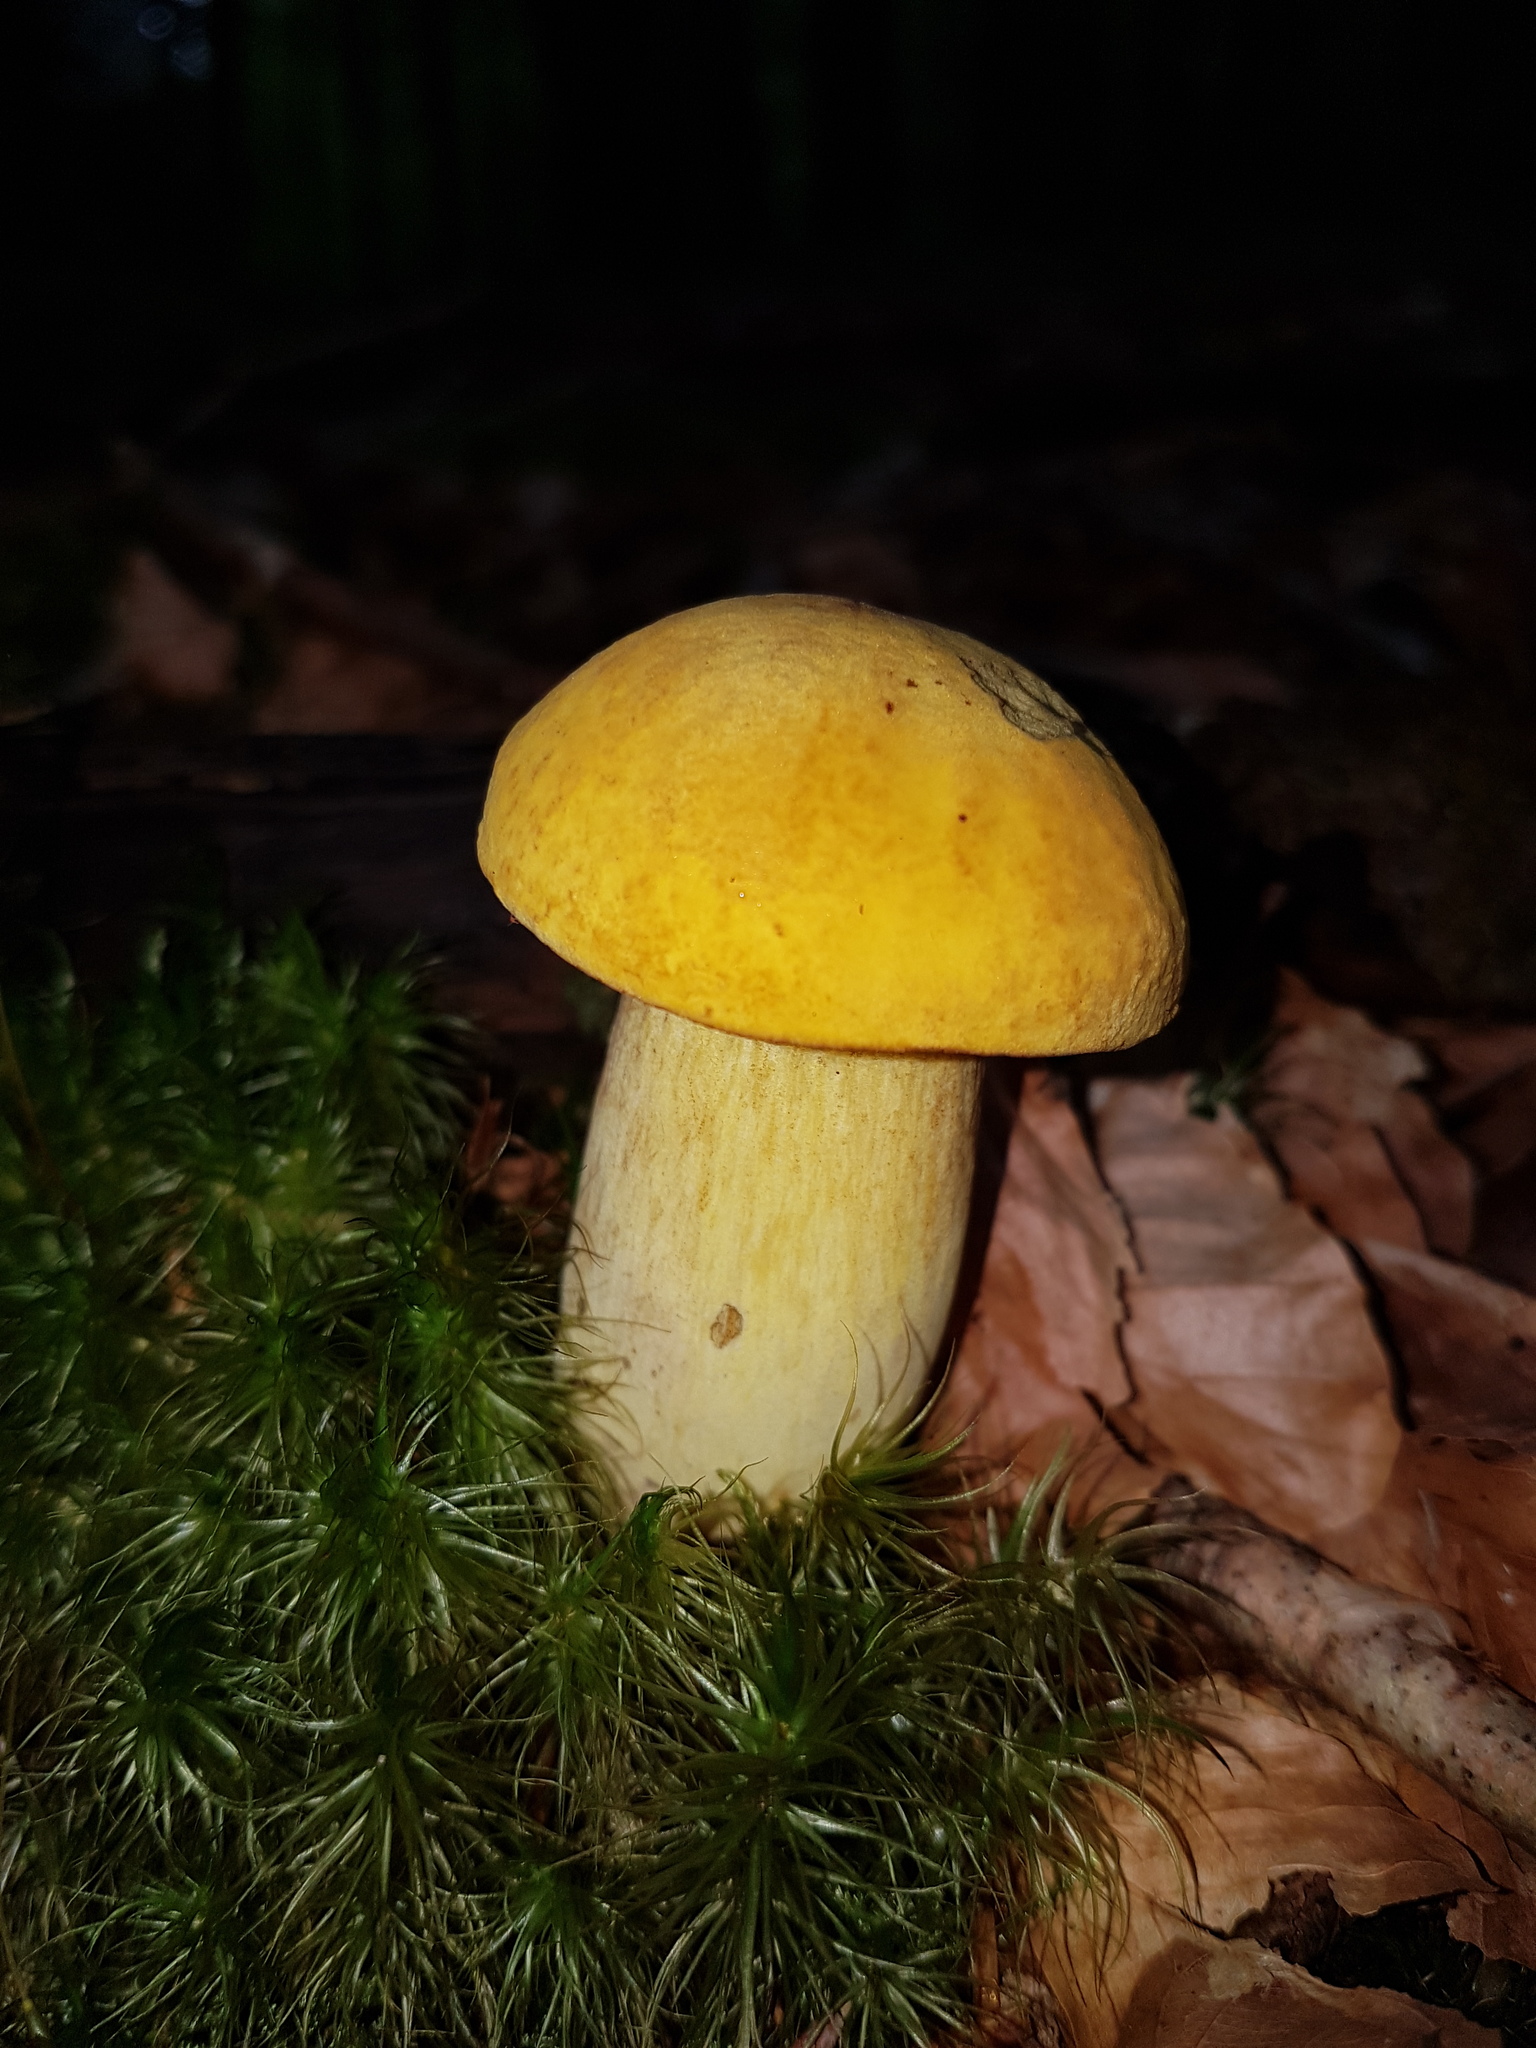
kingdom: Fungi
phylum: Basidiomycota
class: Agaricomycetes
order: Boletales
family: Boletaceae
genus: Neoboletus
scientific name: Neoboletus praestigiator
